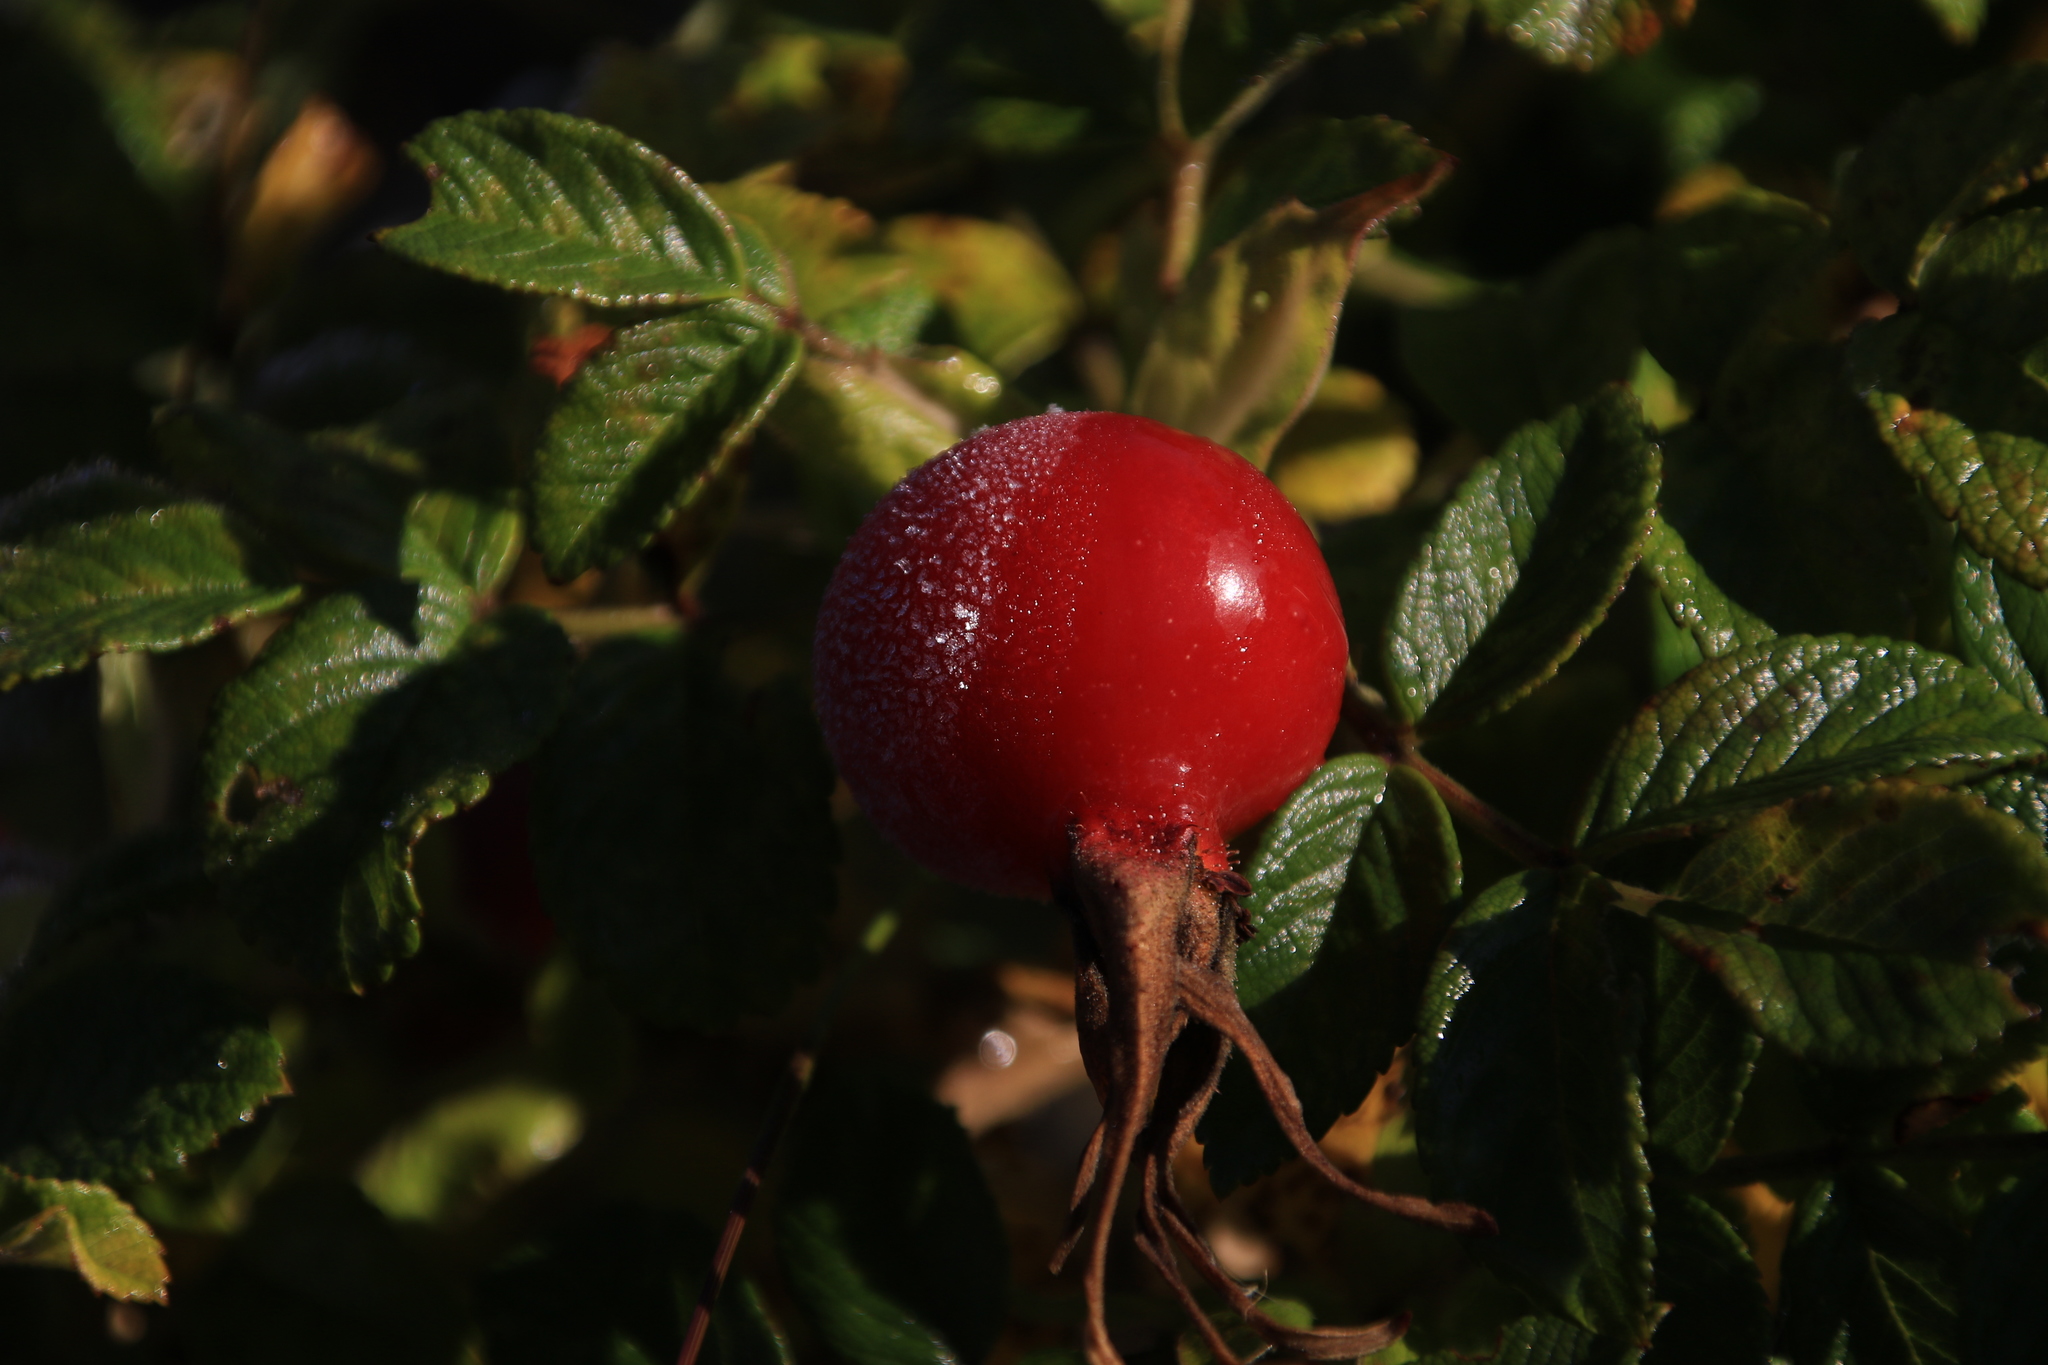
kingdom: Plantae
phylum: Tracheophyta
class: Magnoliopsida
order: Rosales
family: Rosaceae
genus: Rosa
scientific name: Rosa rugosa
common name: Japanese rose
